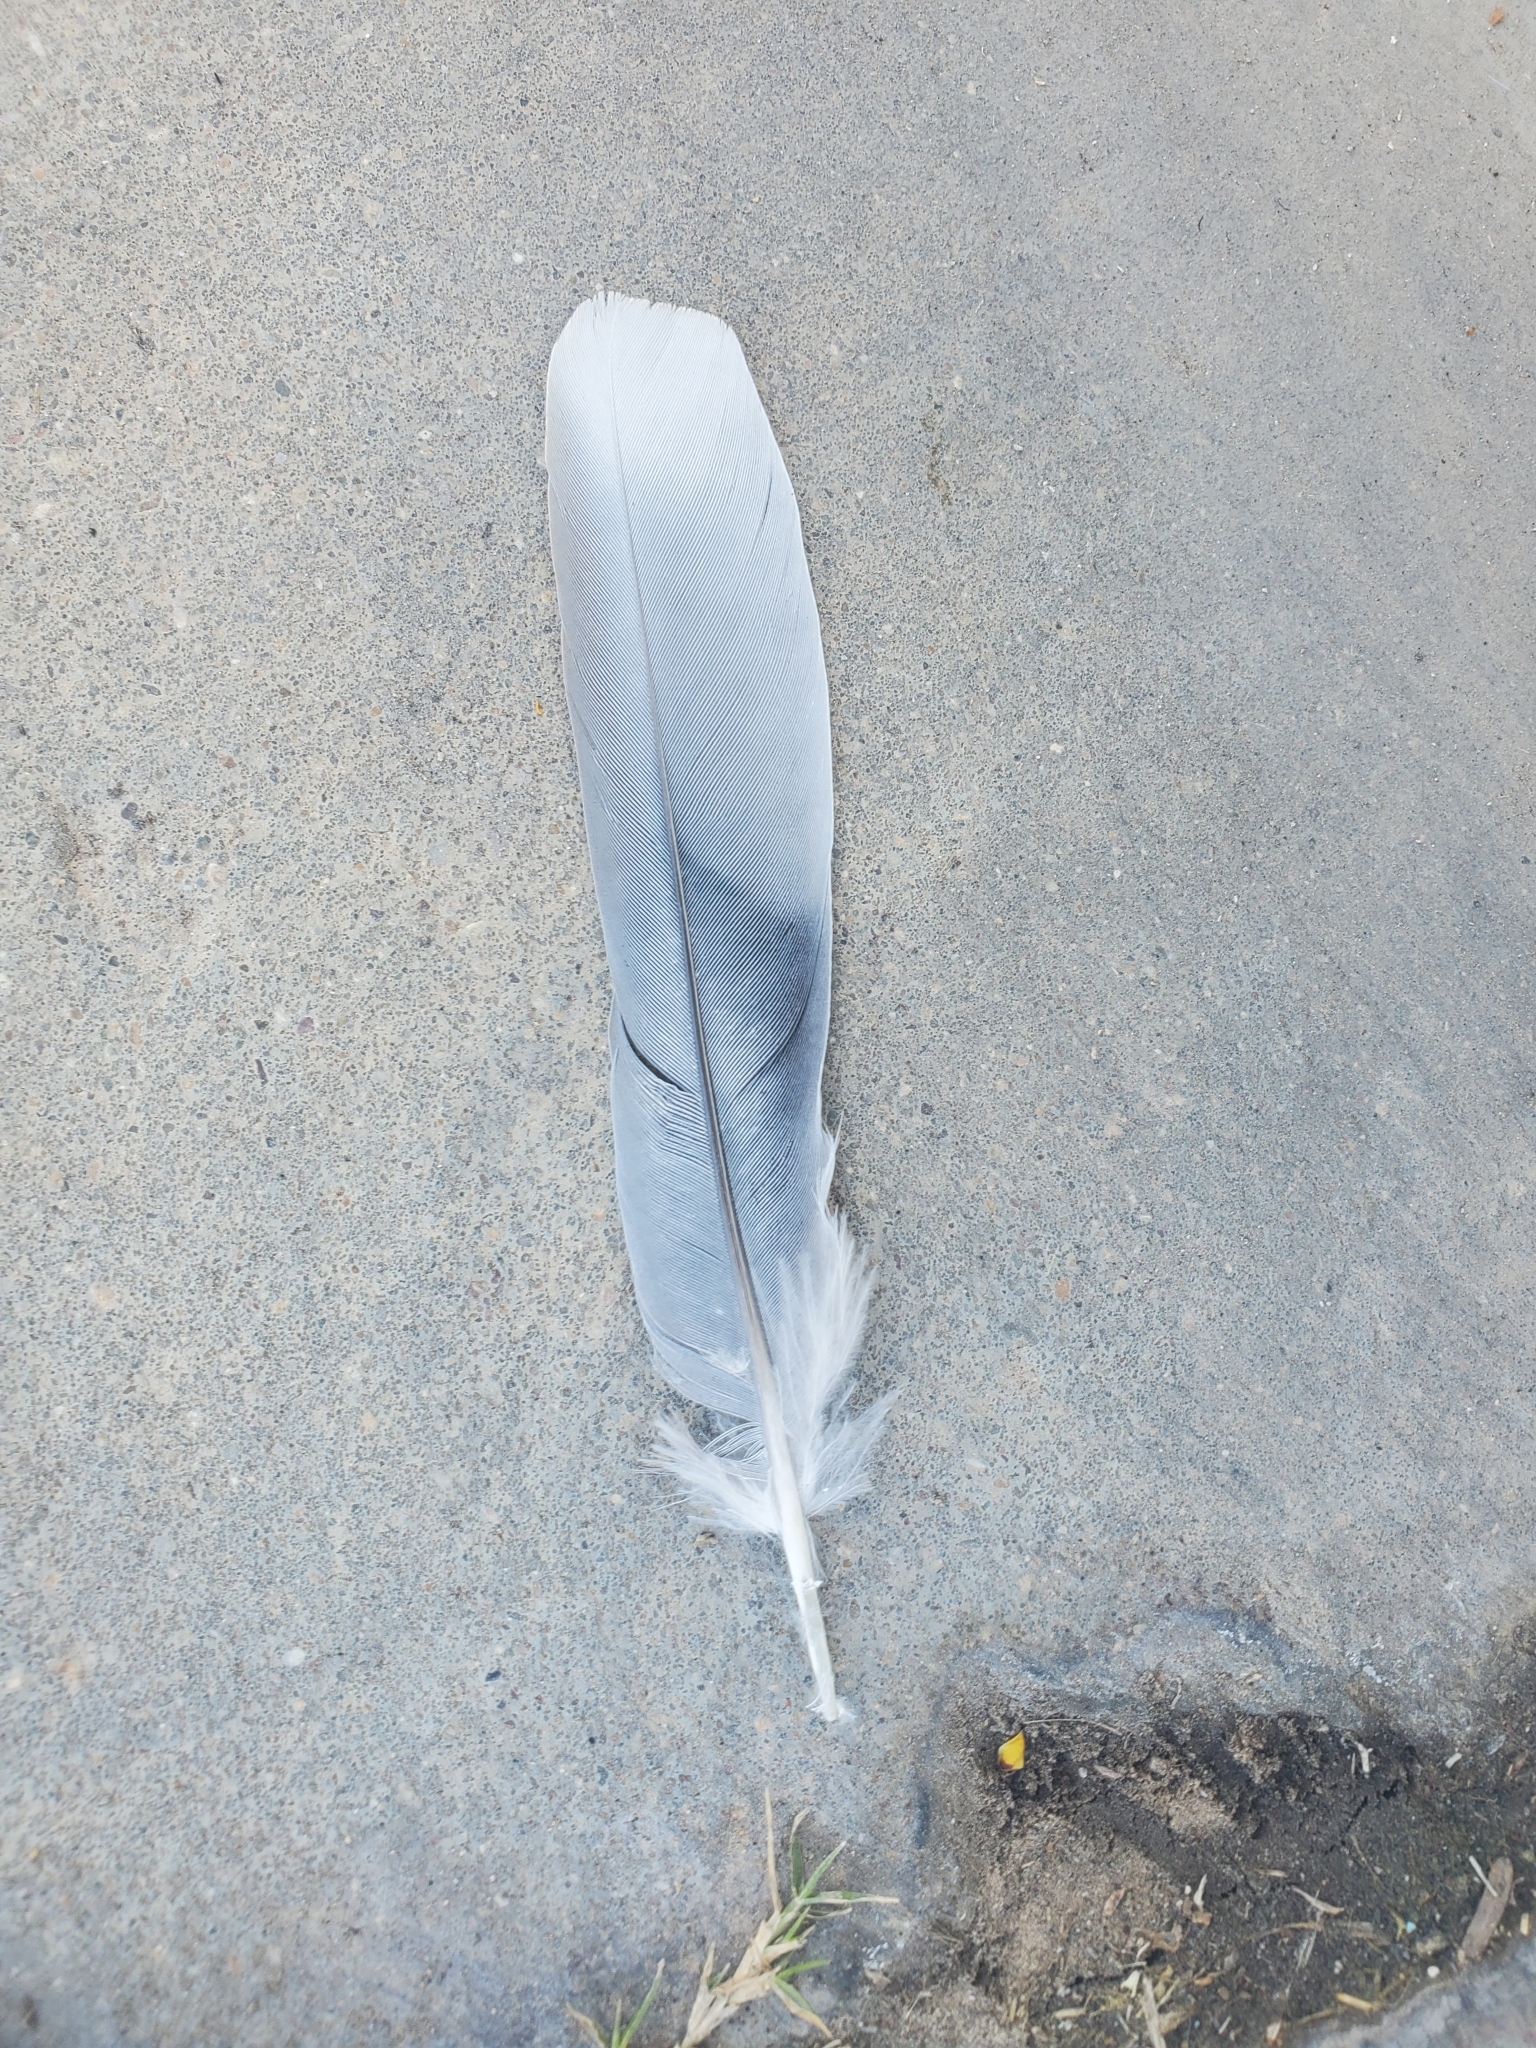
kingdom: Animalia
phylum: Chordata
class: Aves
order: Columbiformes
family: Columbidae
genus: Streptopelia
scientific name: Streptopelia decaocto
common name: Eurasian collared dove
